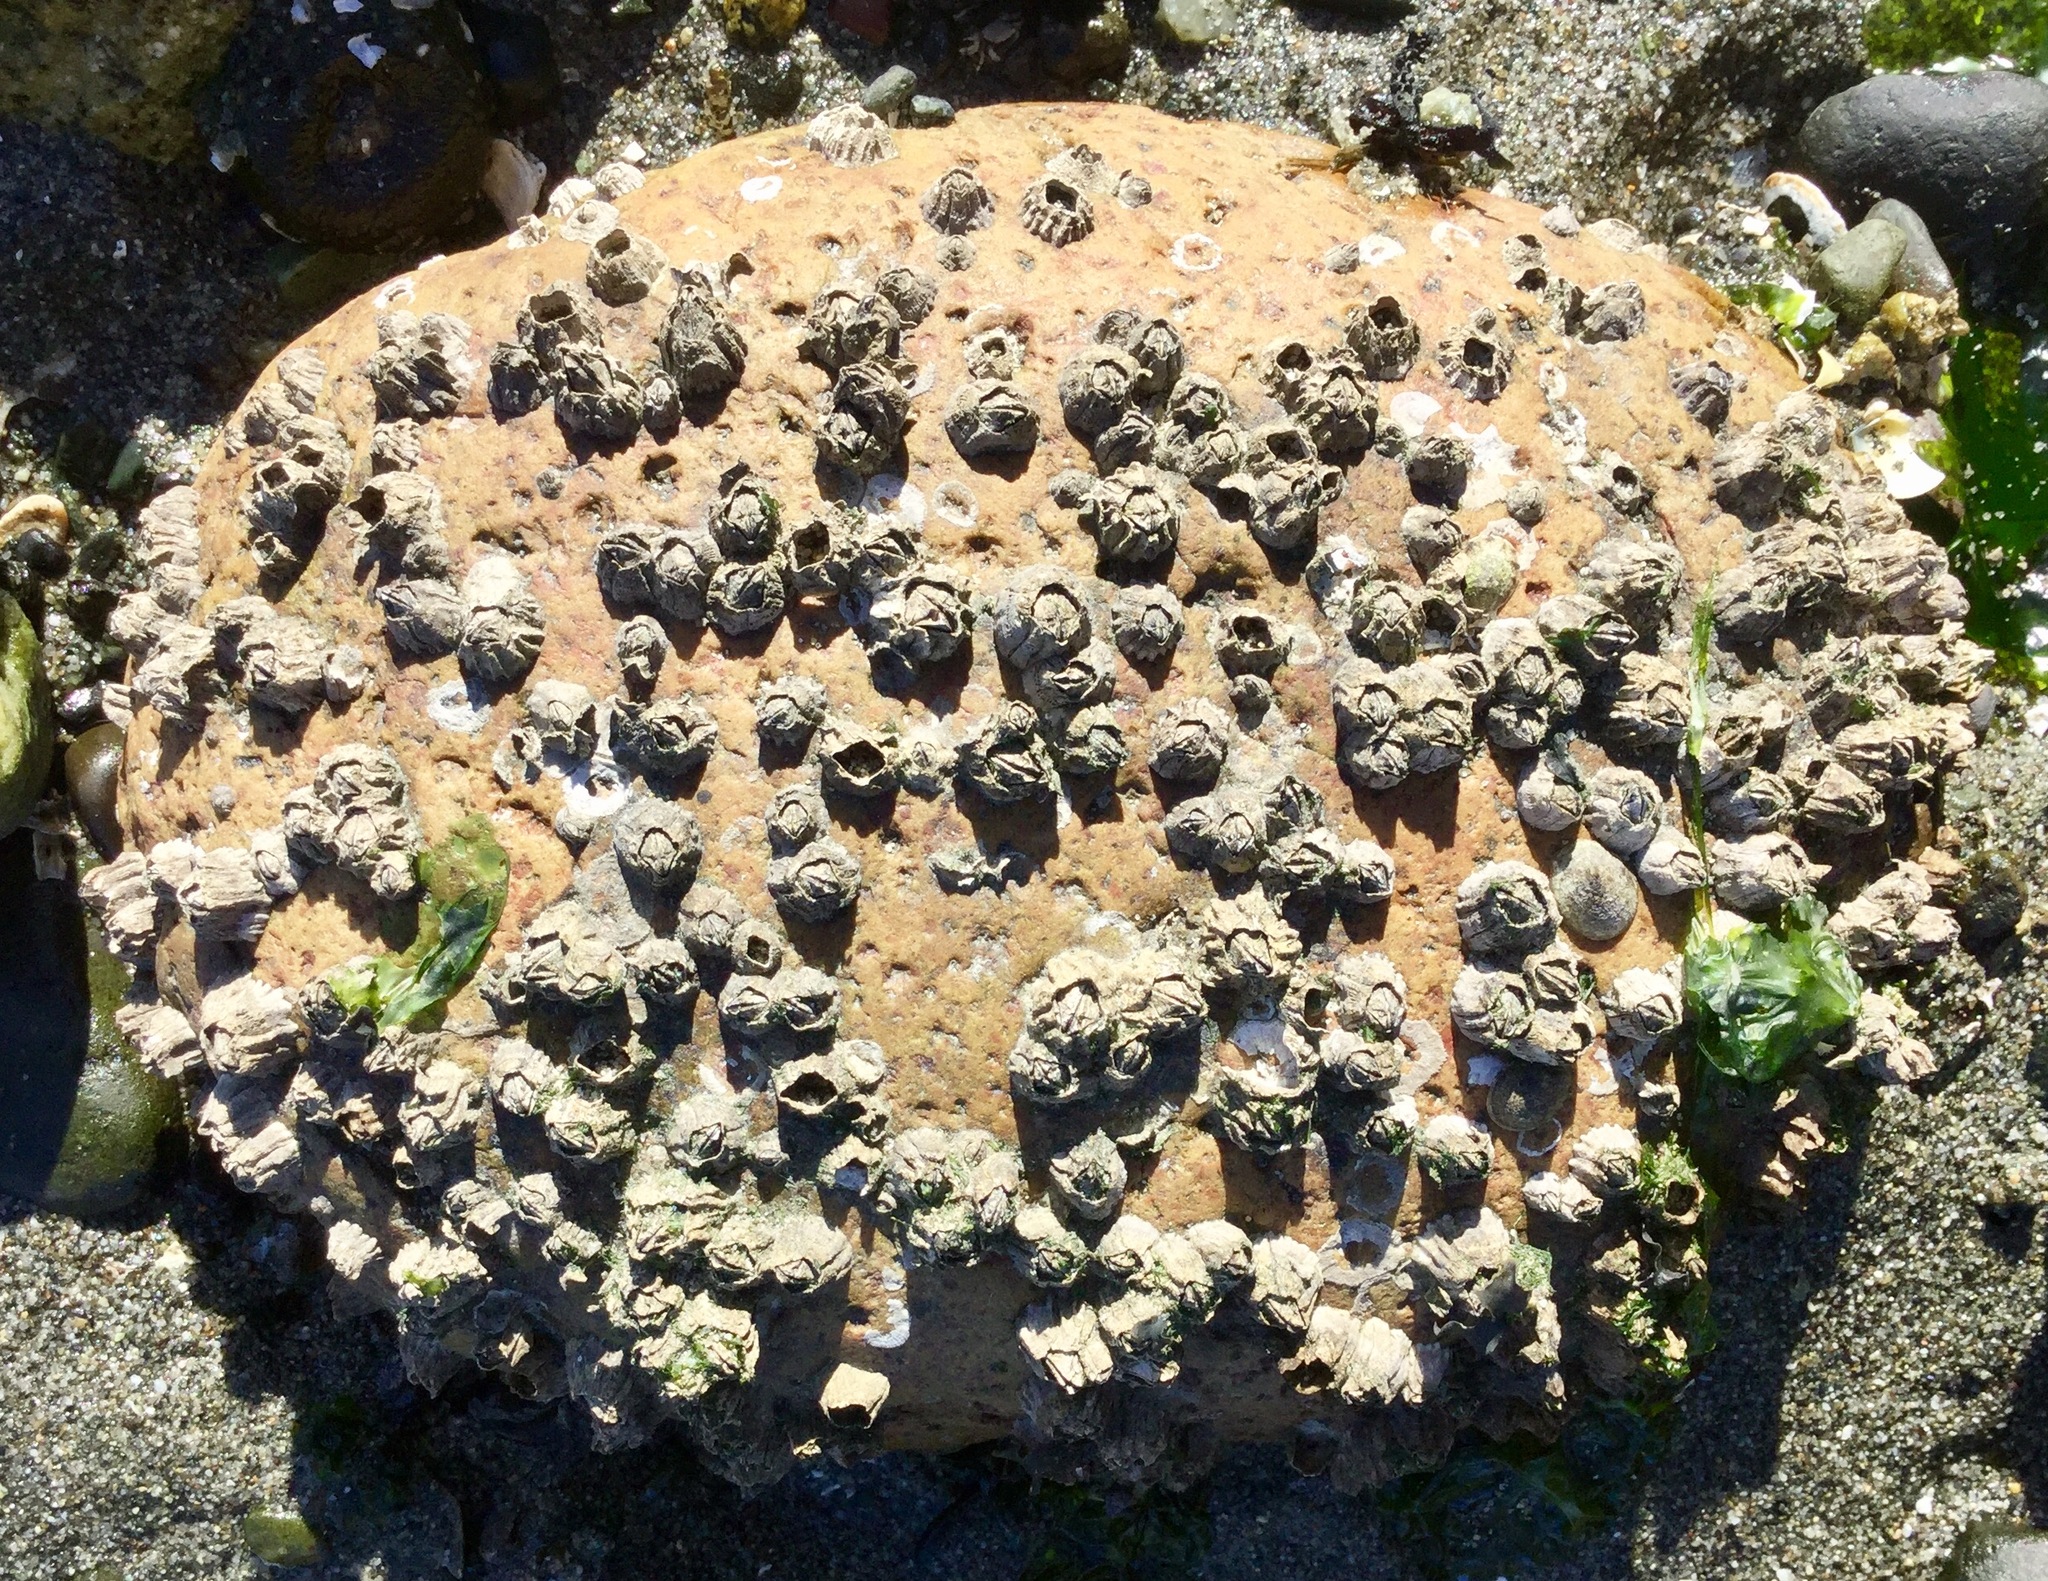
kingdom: Animalia
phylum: Arthropoda
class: Maxillopoda
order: Sessilia
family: Balanidae
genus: Balanus
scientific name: Balanus glandula
